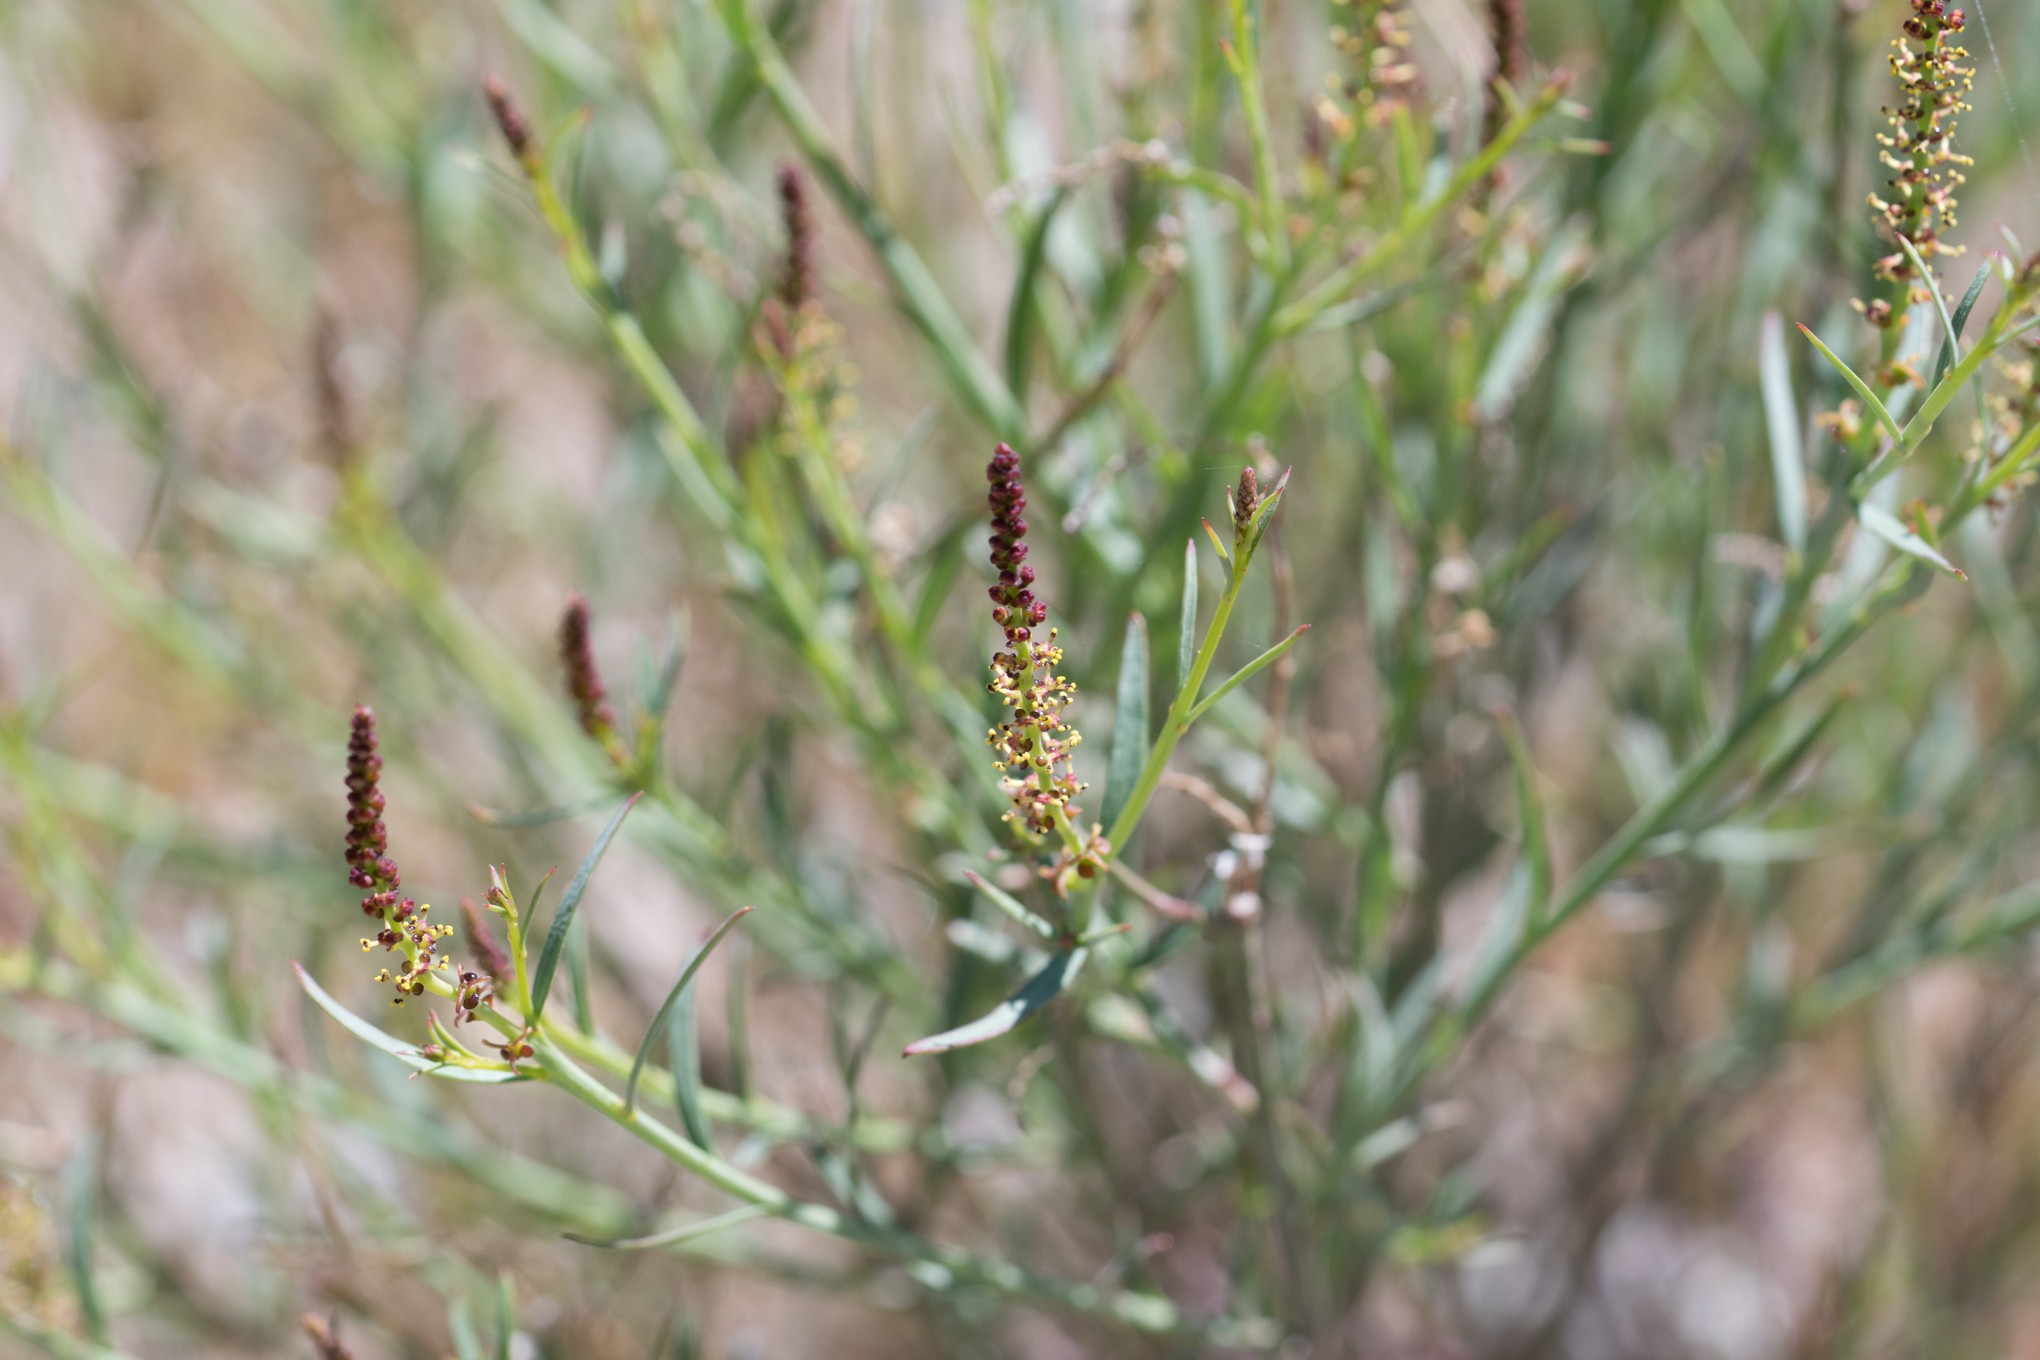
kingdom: Plantae
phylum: Tracheophyta
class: Magnoliopsida
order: Malpighiales
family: Euphorbiaceae
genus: Stillingia
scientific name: Stillingia linearifolia
